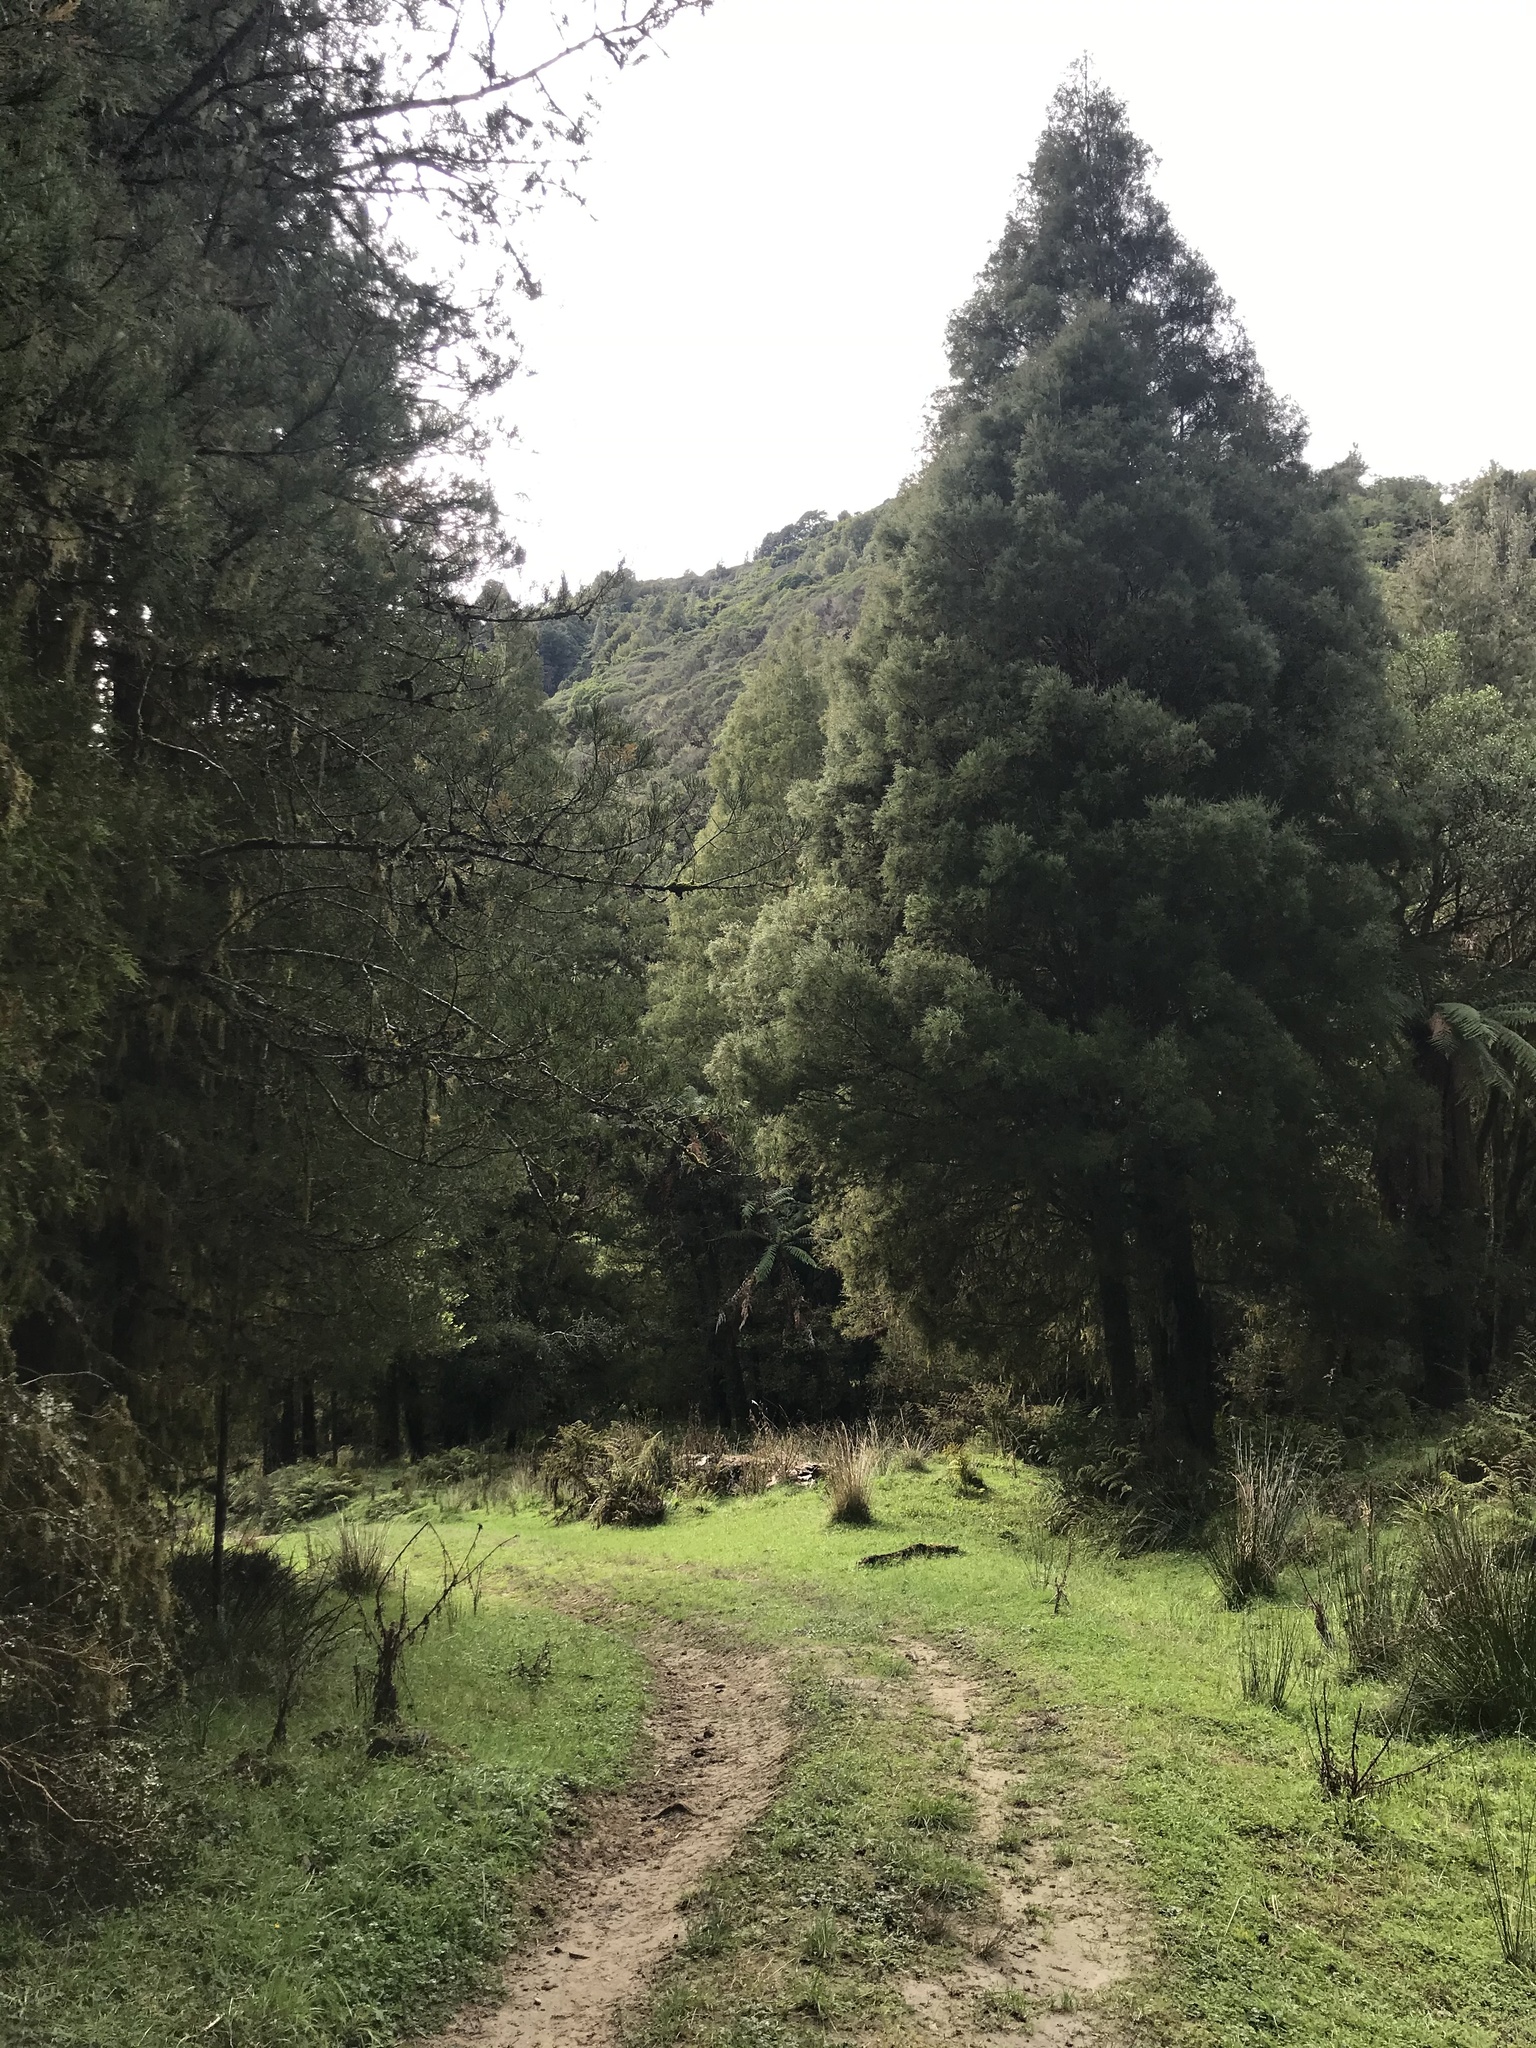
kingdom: Plantae
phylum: Tracheophyta
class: Pinopsida
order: Pinales
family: Podocarpaceae
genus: Dacrycarpus
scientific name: Dacrycarpus dacrydioides
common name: White pine
